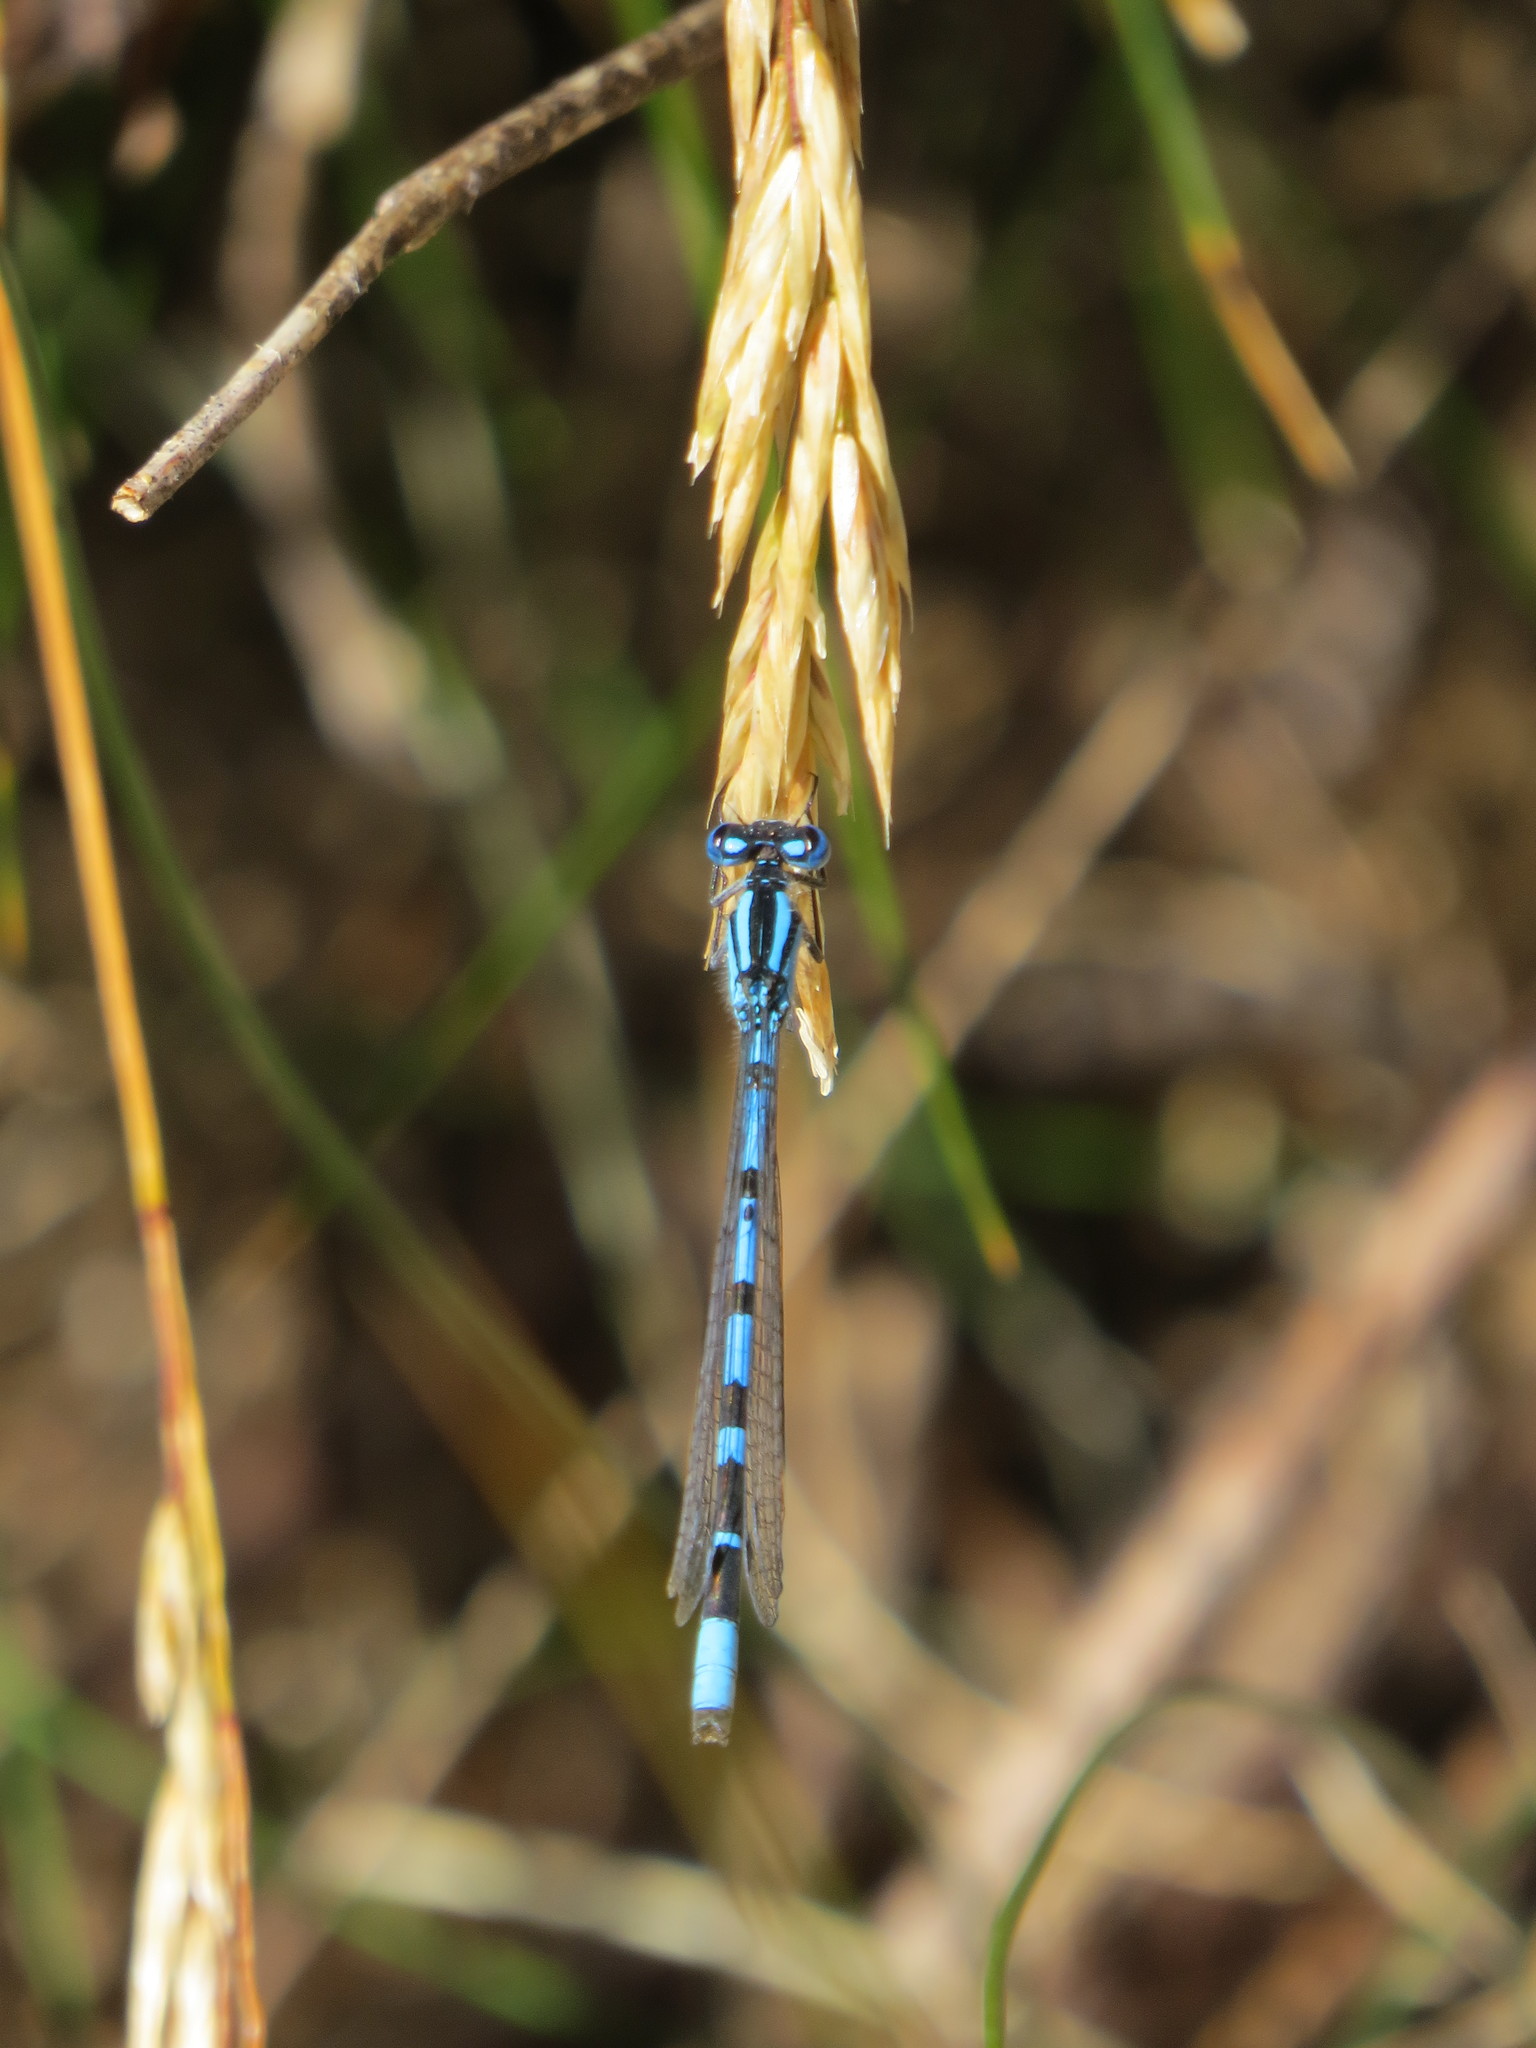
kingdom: Animalia
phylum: Arthropoda
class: Insecta
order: Odonata
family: Coenagrionidae
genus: Enallagma
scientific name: Enallagma cyathigerum
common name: Common blue damselfly
